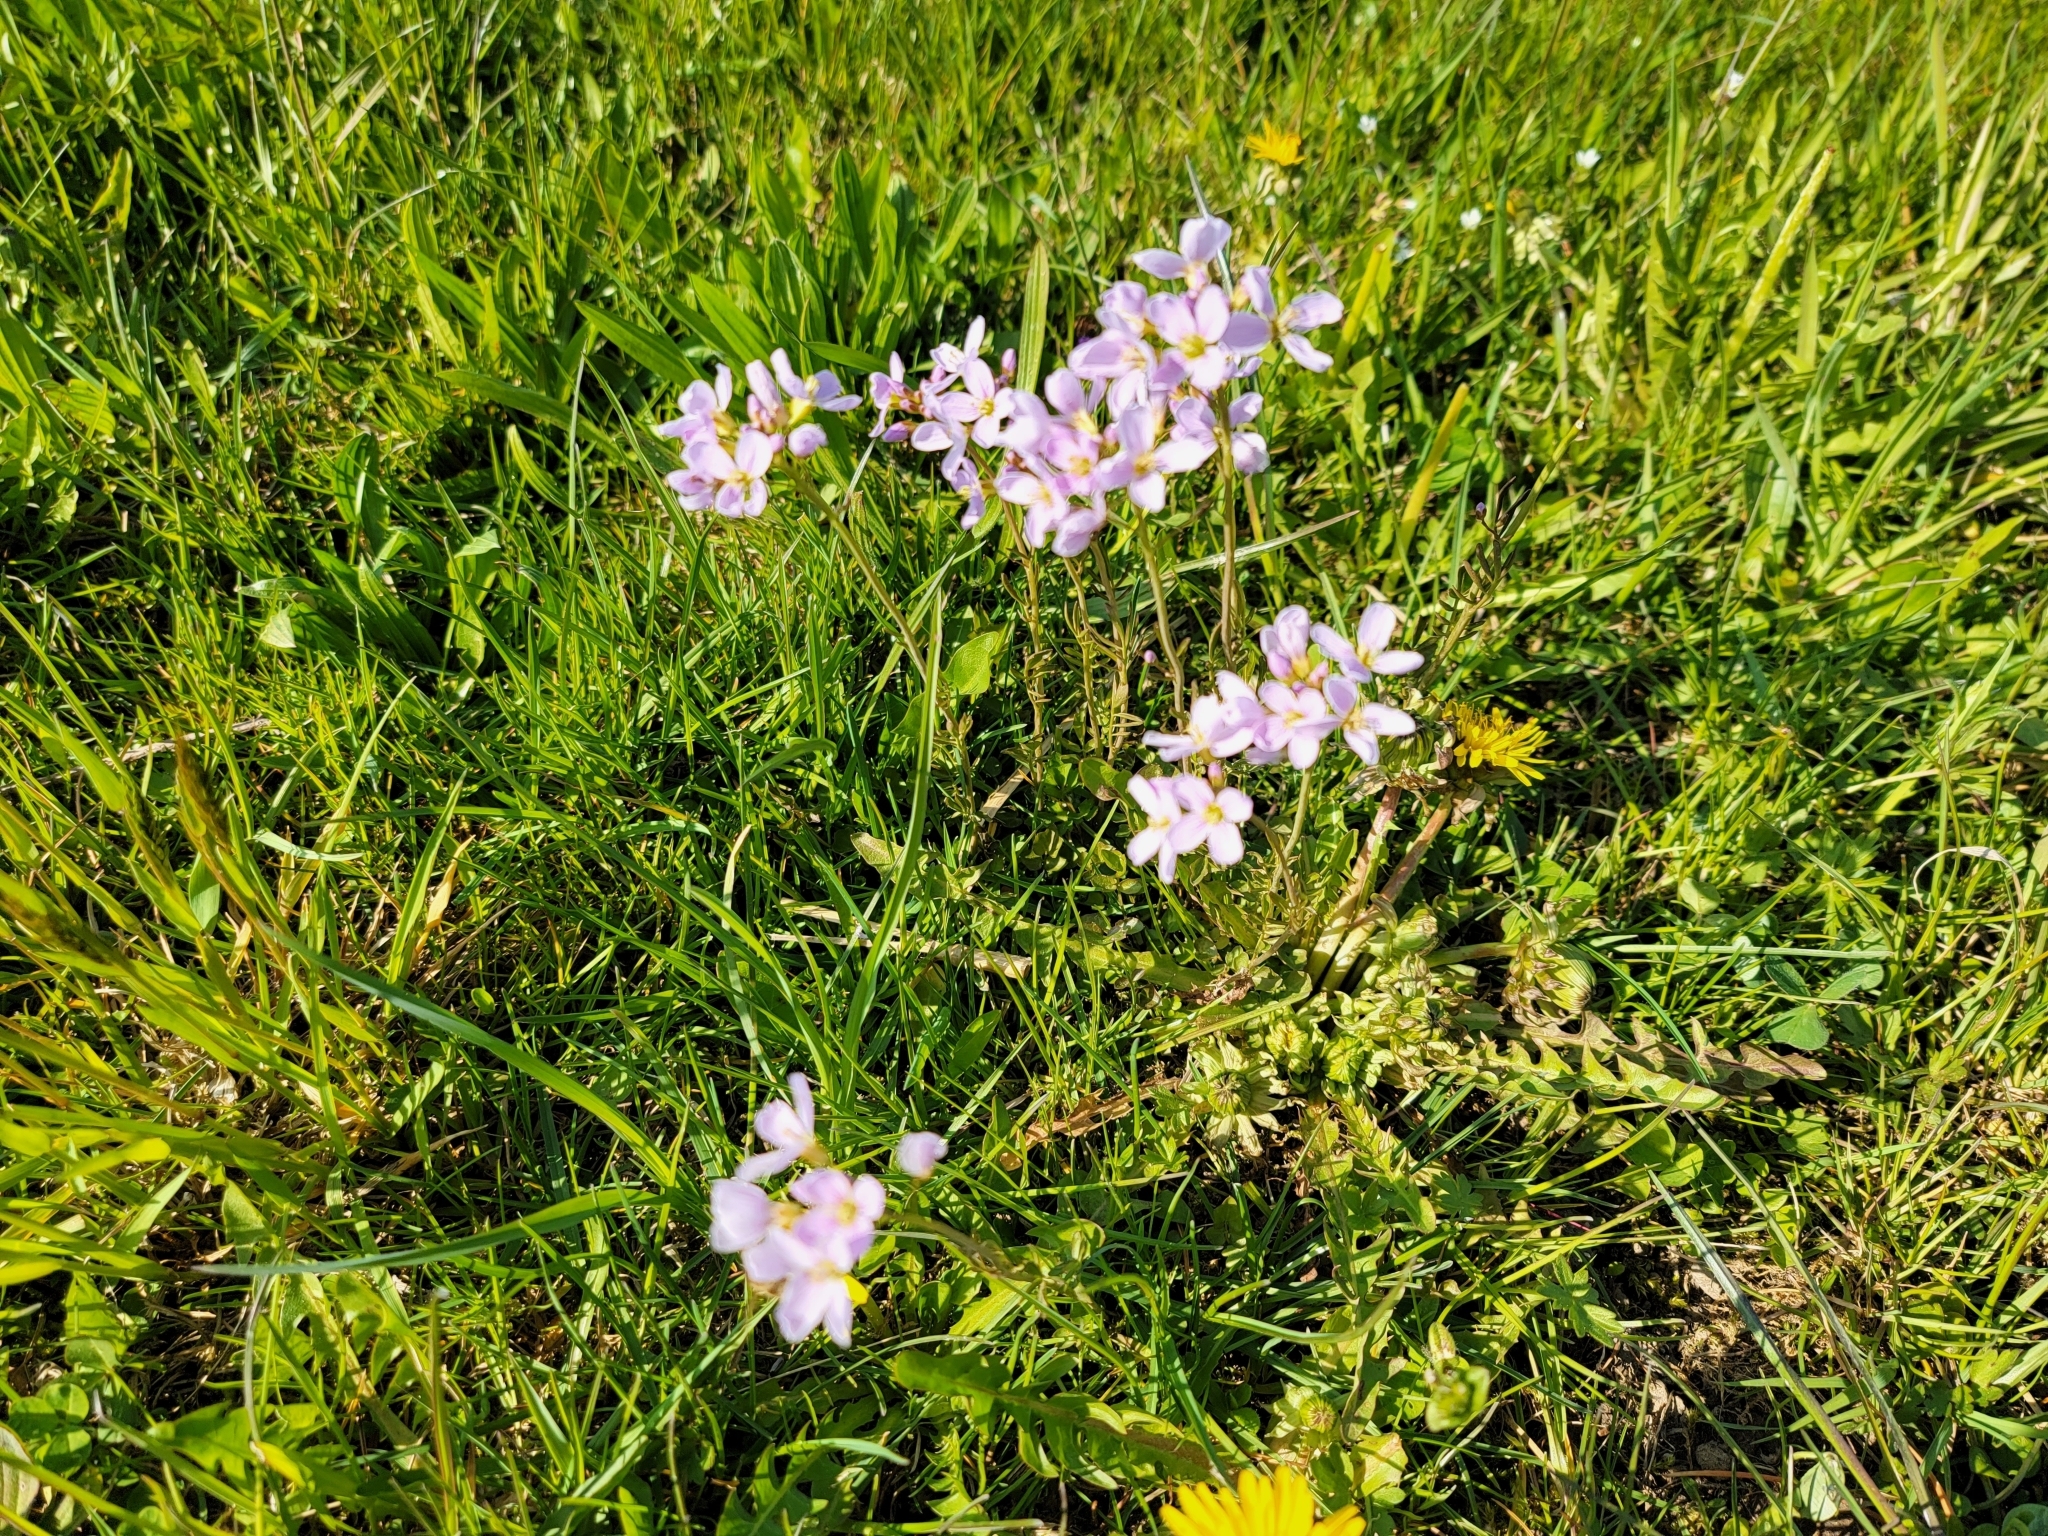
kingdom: Plantae
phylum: Tracheophyta
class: Magnoliopsida
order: Brassicales
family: Brassicaceae
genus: Cardamine
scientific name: Cardamine pratensis
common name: Cuckoo flower
